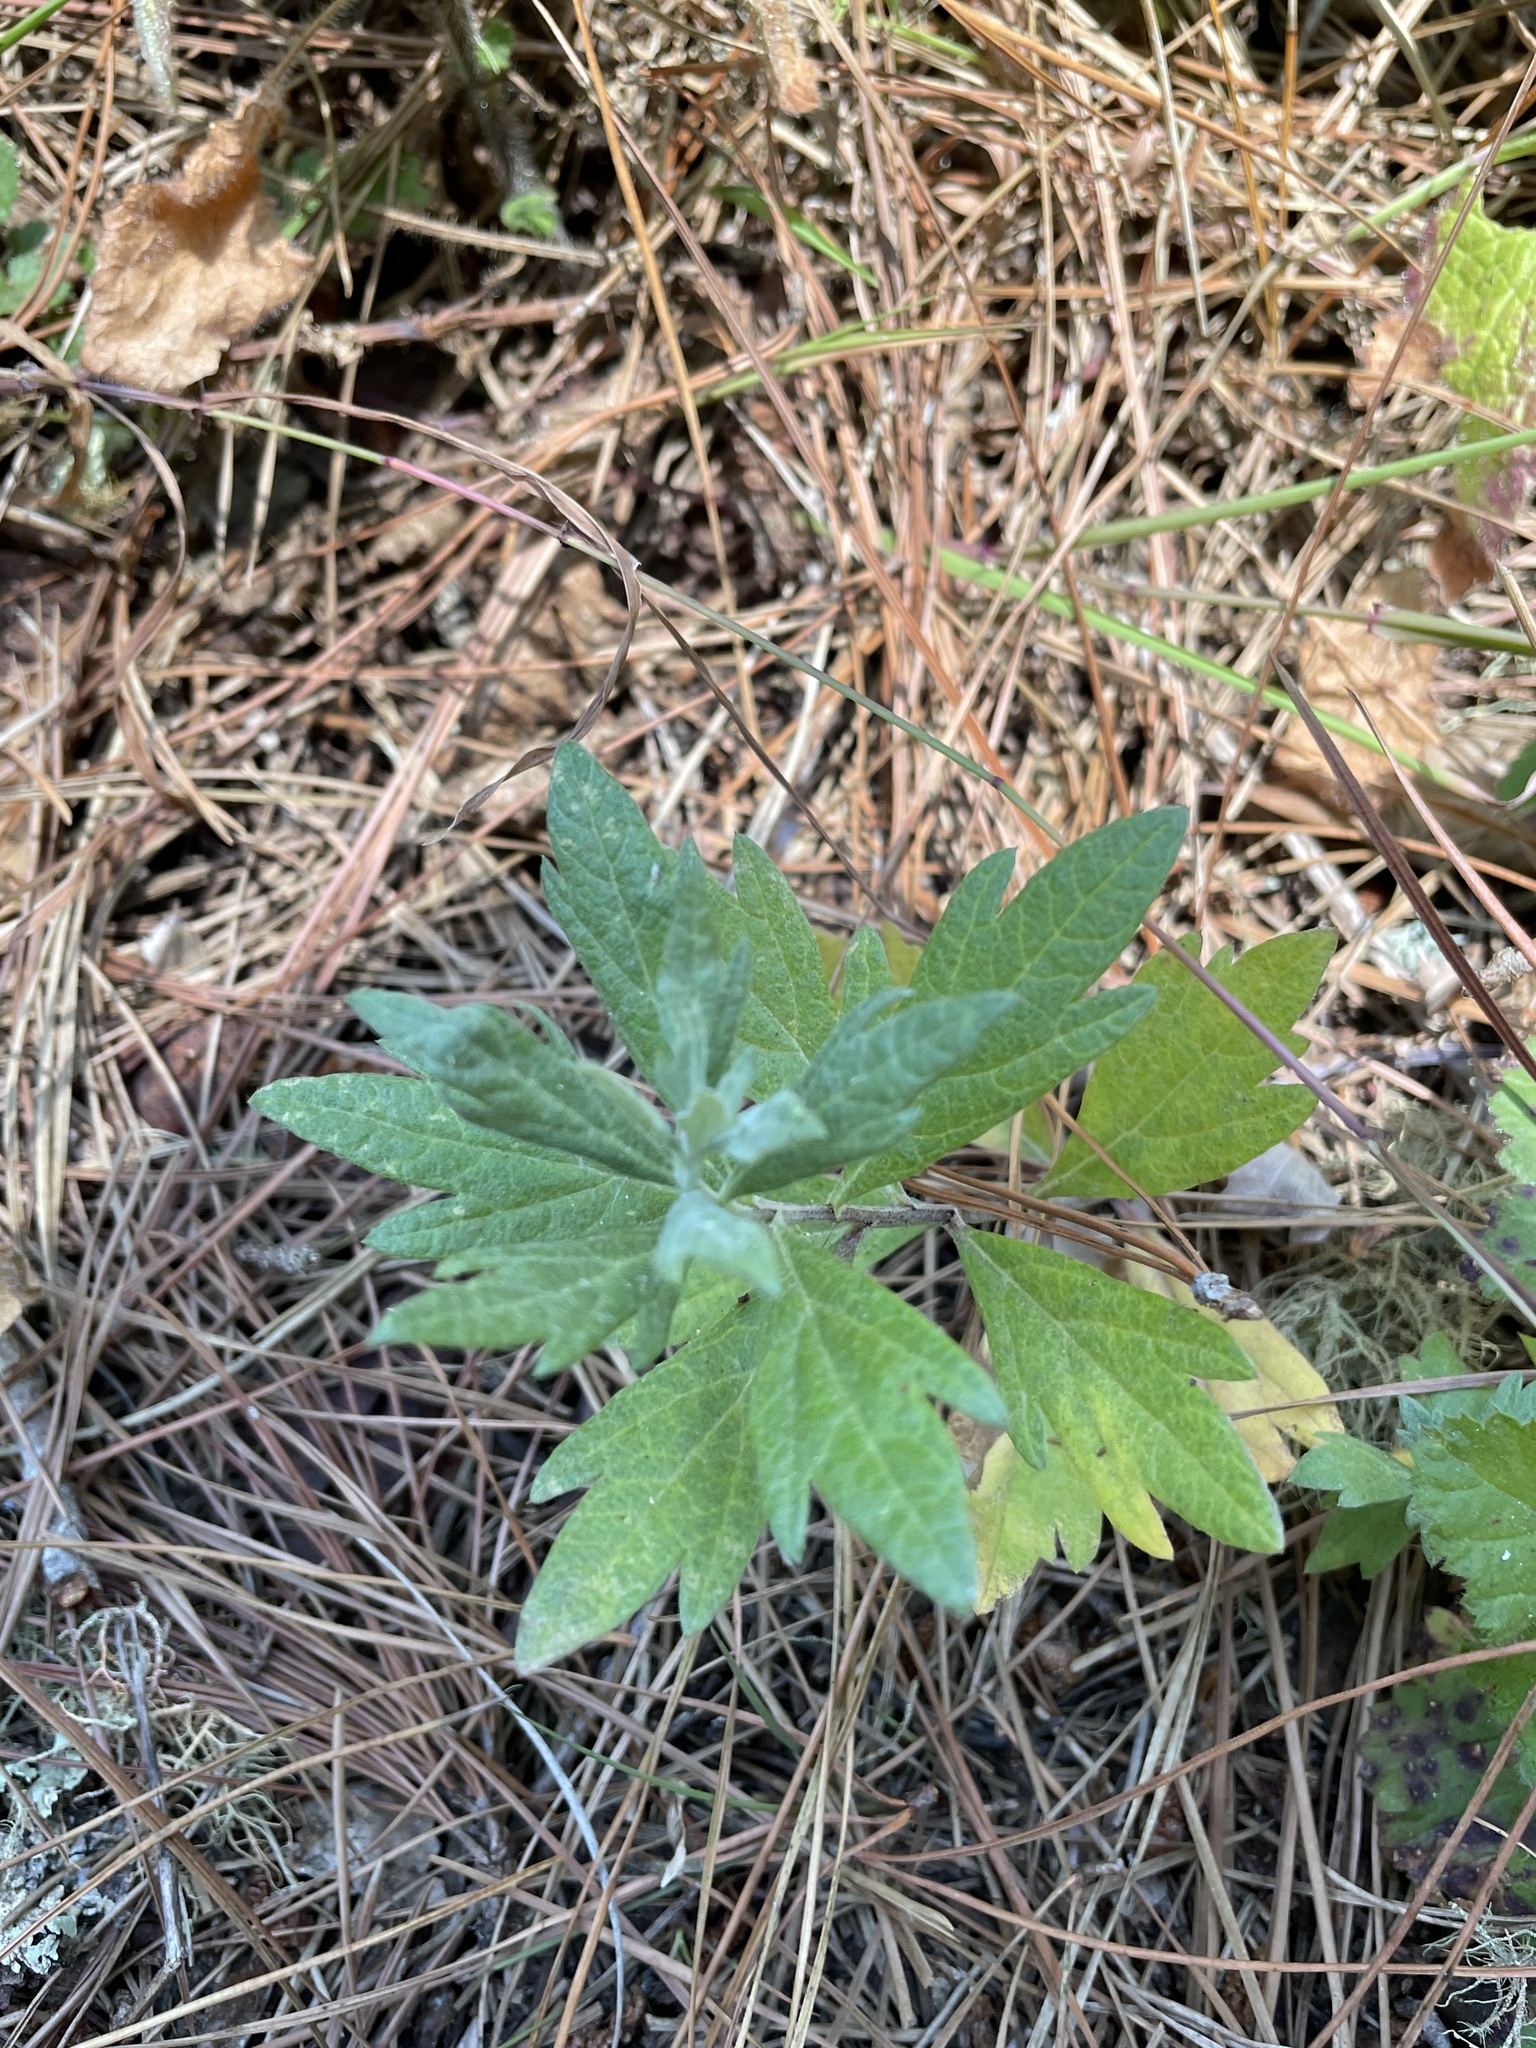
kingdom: Plantae
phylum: Tracheophyta
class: Magnoliopsida
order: Asterales
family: Asteraceae
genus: Artemisia
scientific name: Artemisia douglasiana
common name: Northwest mugwort
